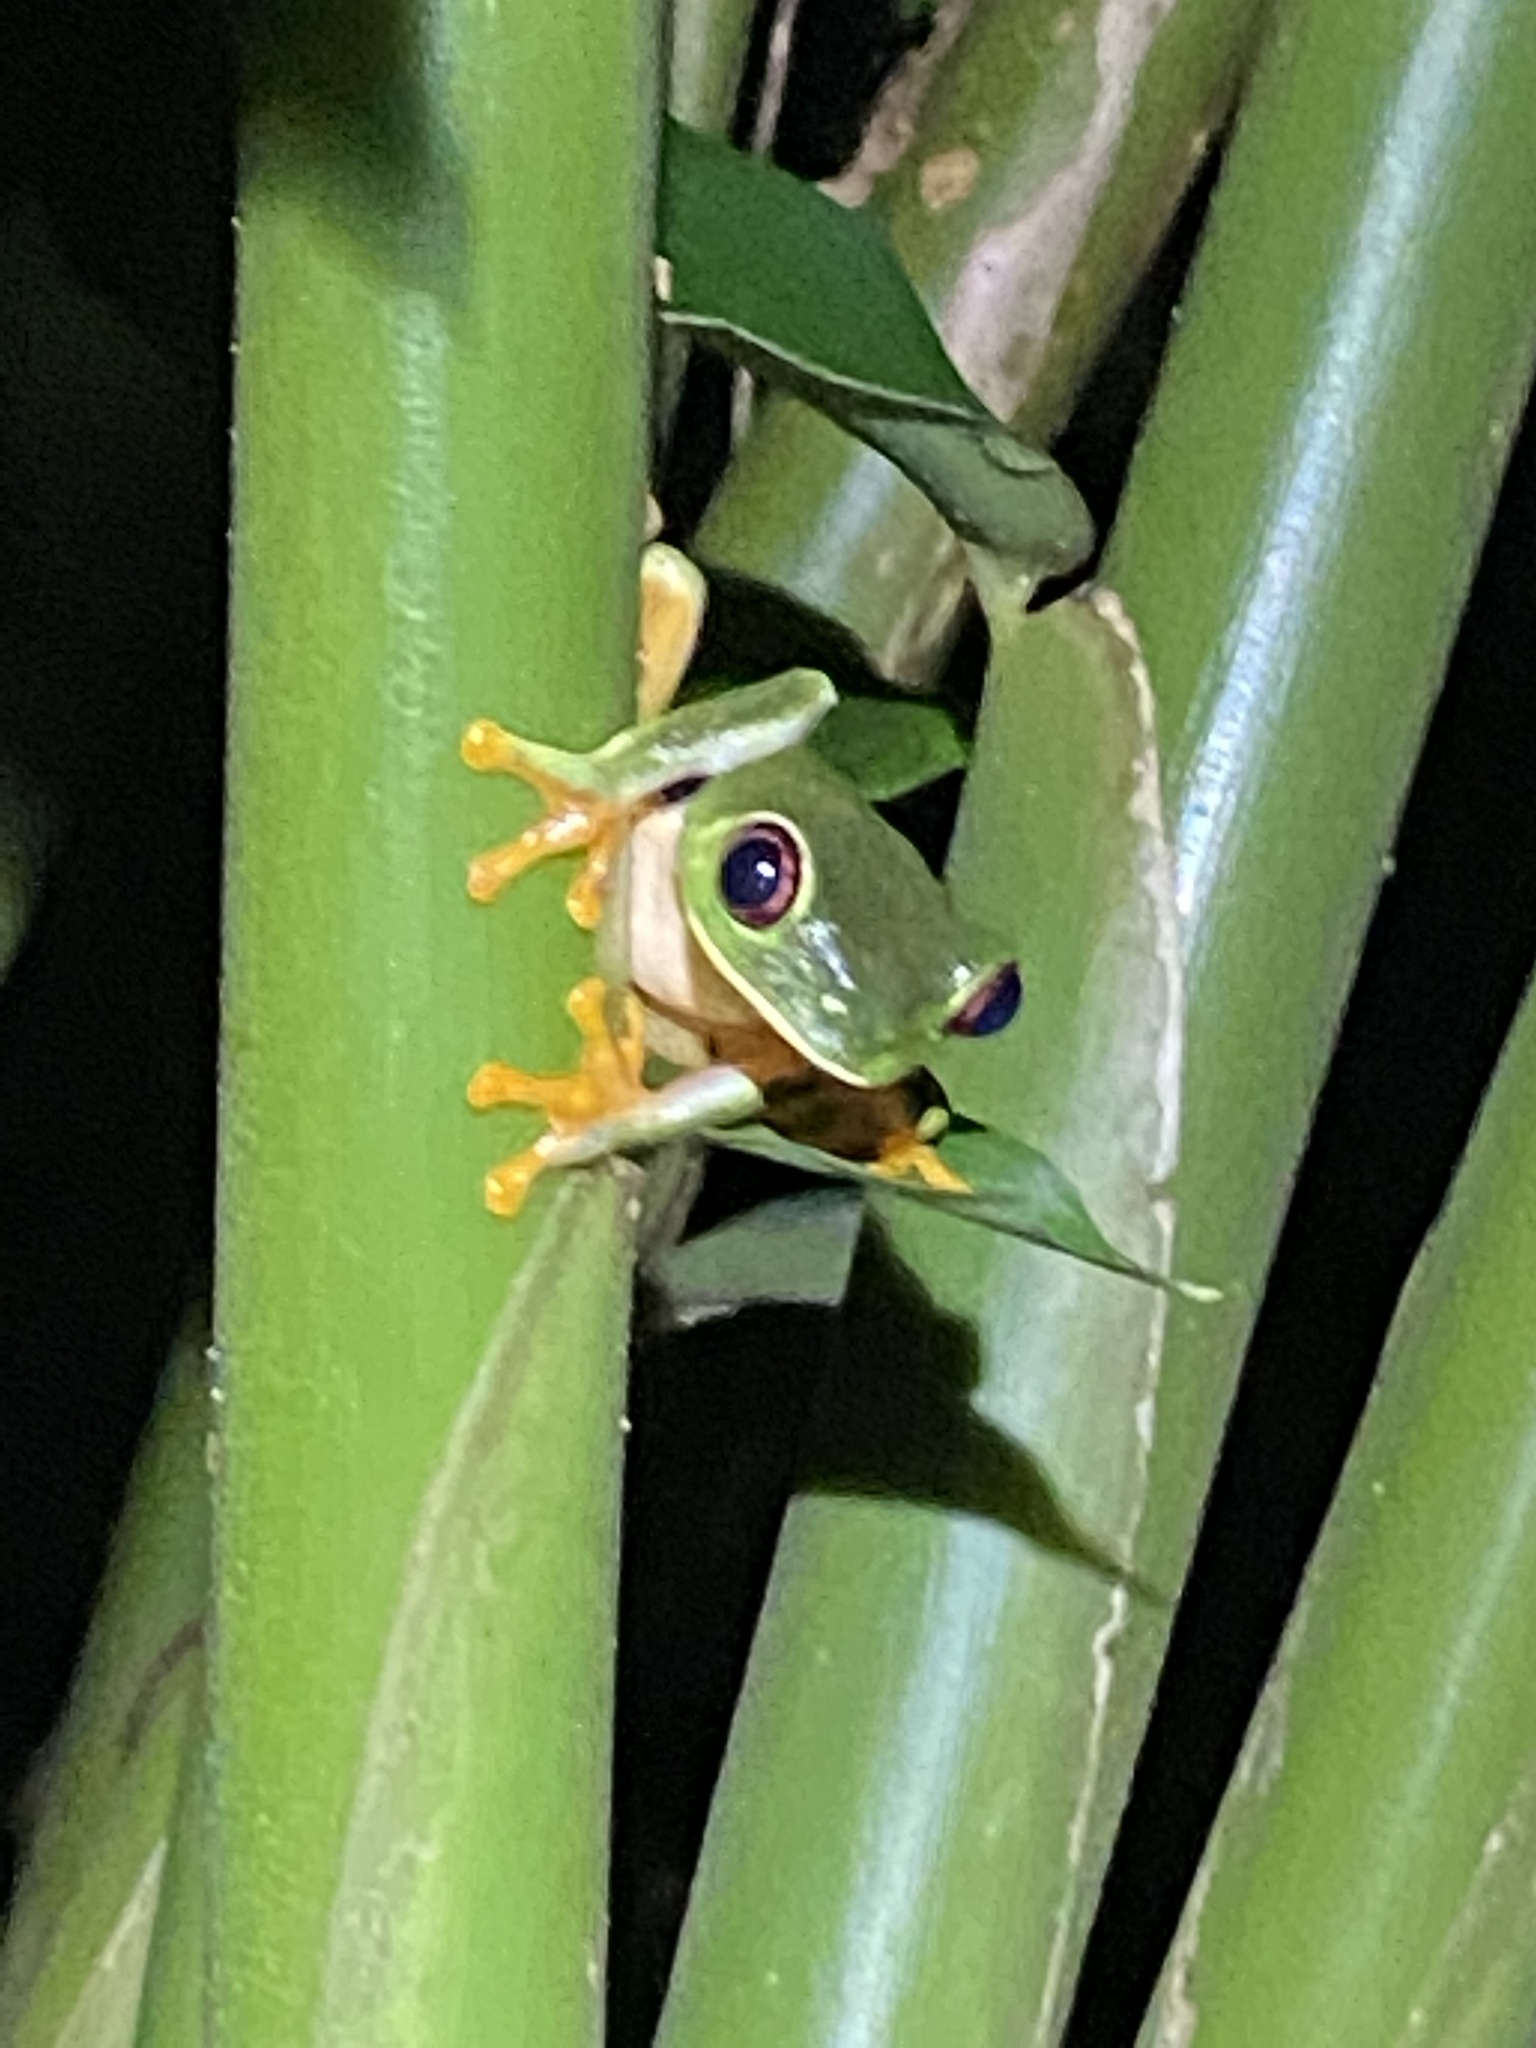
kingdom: Animalia
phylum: Chordata
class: Amphibia
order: Anura
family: Phyllomedusidae
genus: Agalychnis
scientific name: Agalychnis callidryas
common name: Red-eyed treefrog
